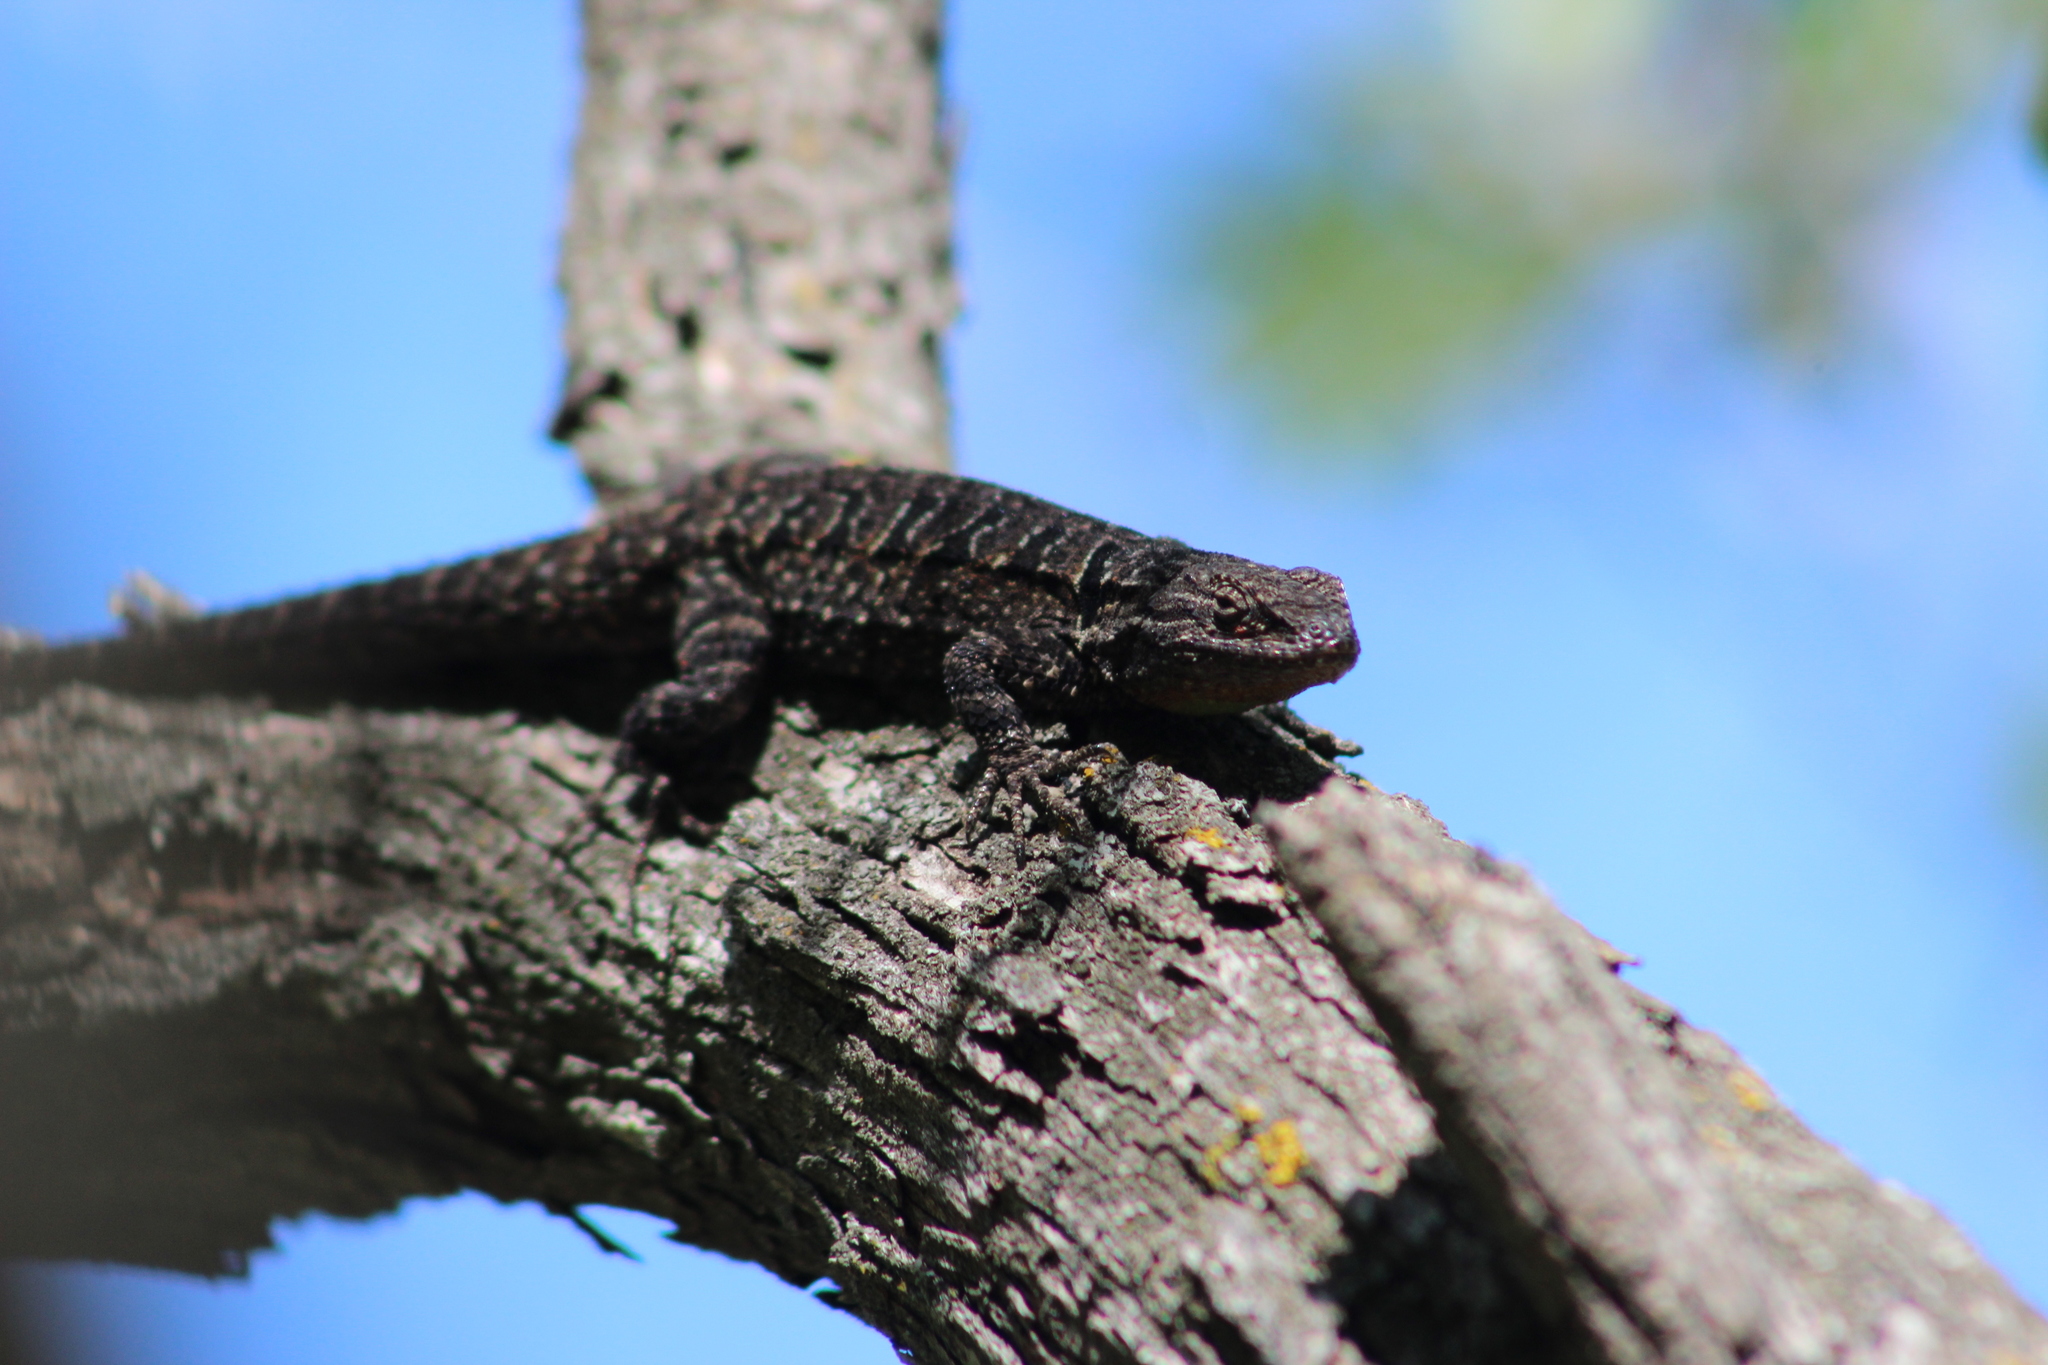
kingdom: Animalia
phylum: Chordata
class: Squamata
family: Phrynosomatidae
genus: Urosaurus
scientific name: Urosaurus ornatus
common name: Ornate tree lizard
